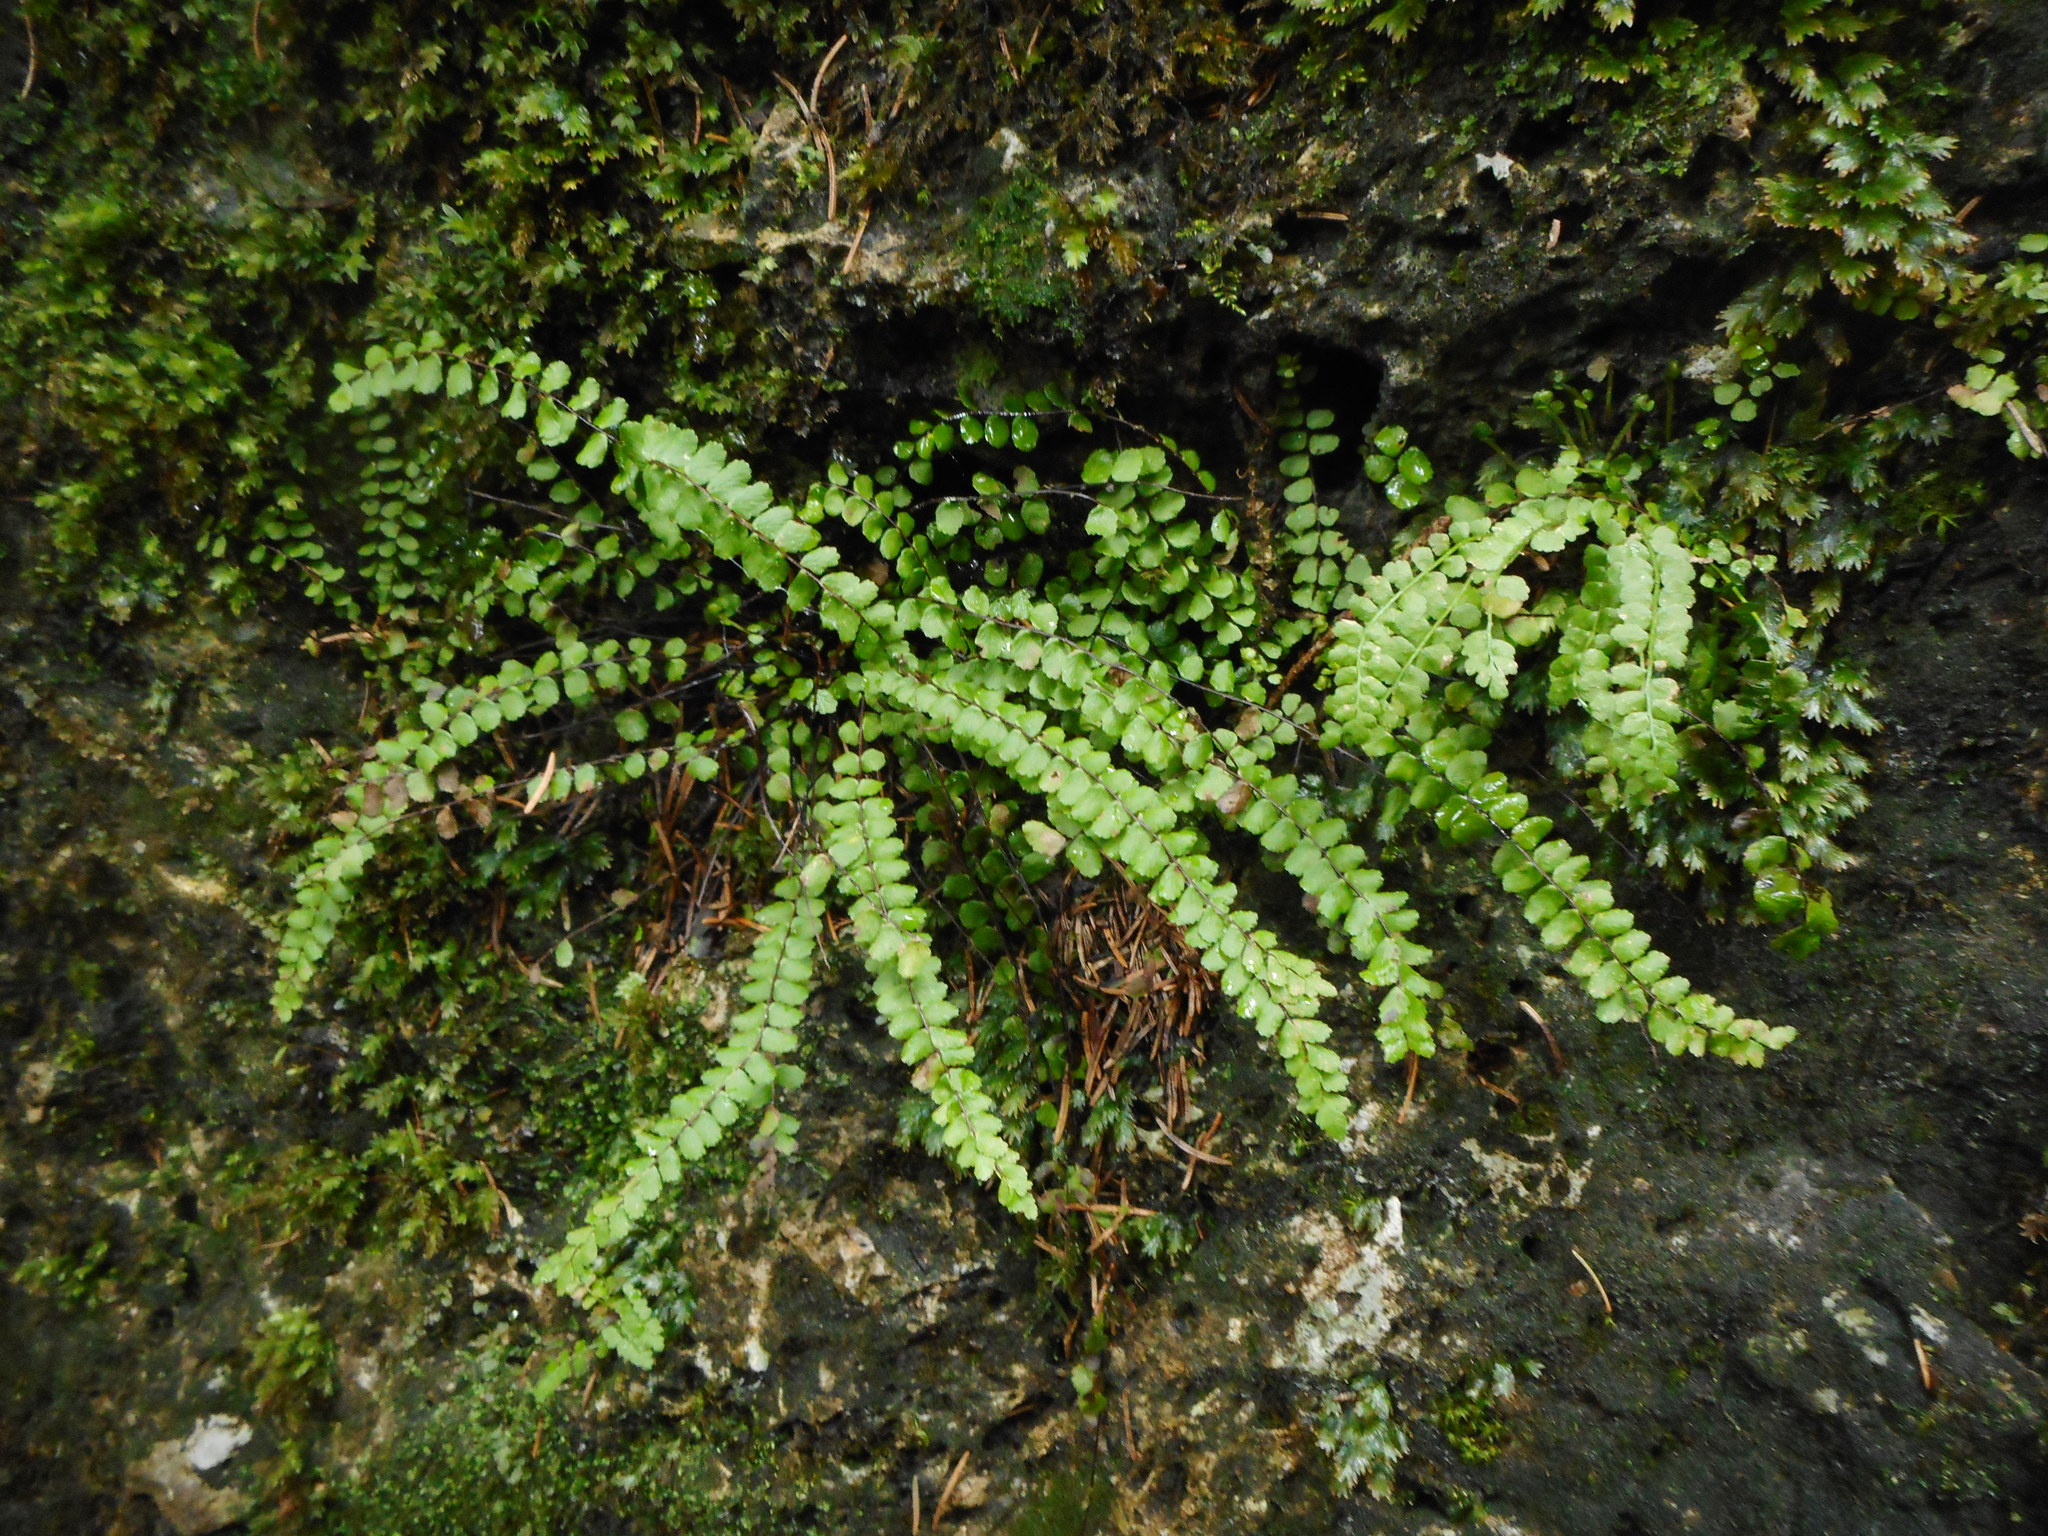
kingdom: Plantae
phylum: Tracheophyta
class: Polypodiopsida
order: Polypodiales
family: Aspleniaceae
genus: Asplenium
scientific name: Asplenium trichomanes
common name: Maidenhair spleenwort
